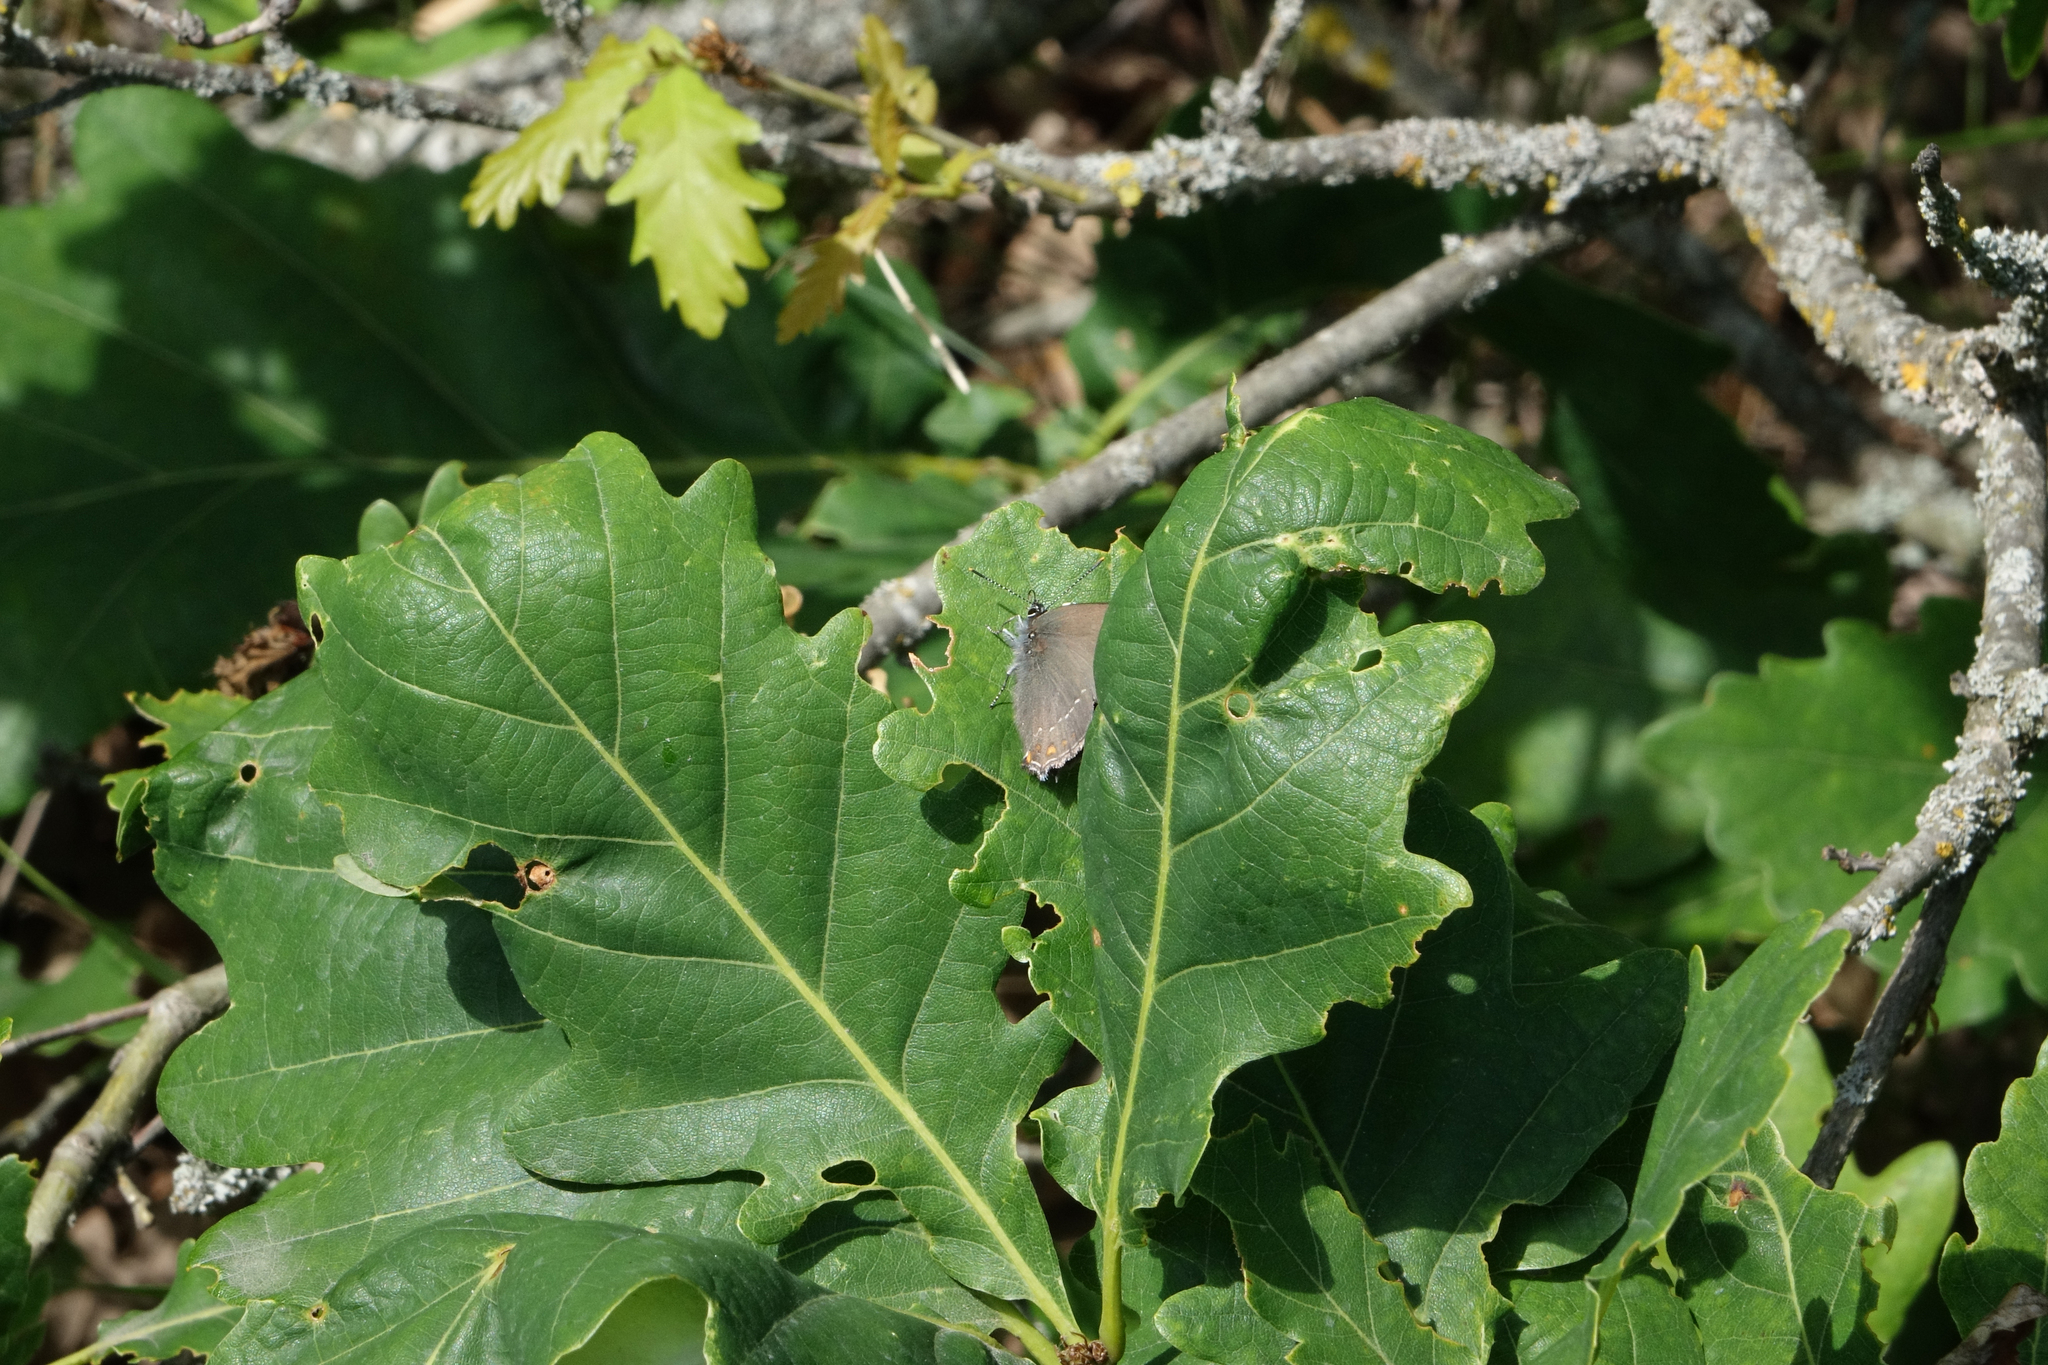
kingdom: Plantae
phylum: Tracheophyta
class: Magnoliopsida
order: Fagales
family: Fagaceae
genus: Quercus
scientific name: Quercus petraea
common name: Sessile oak
